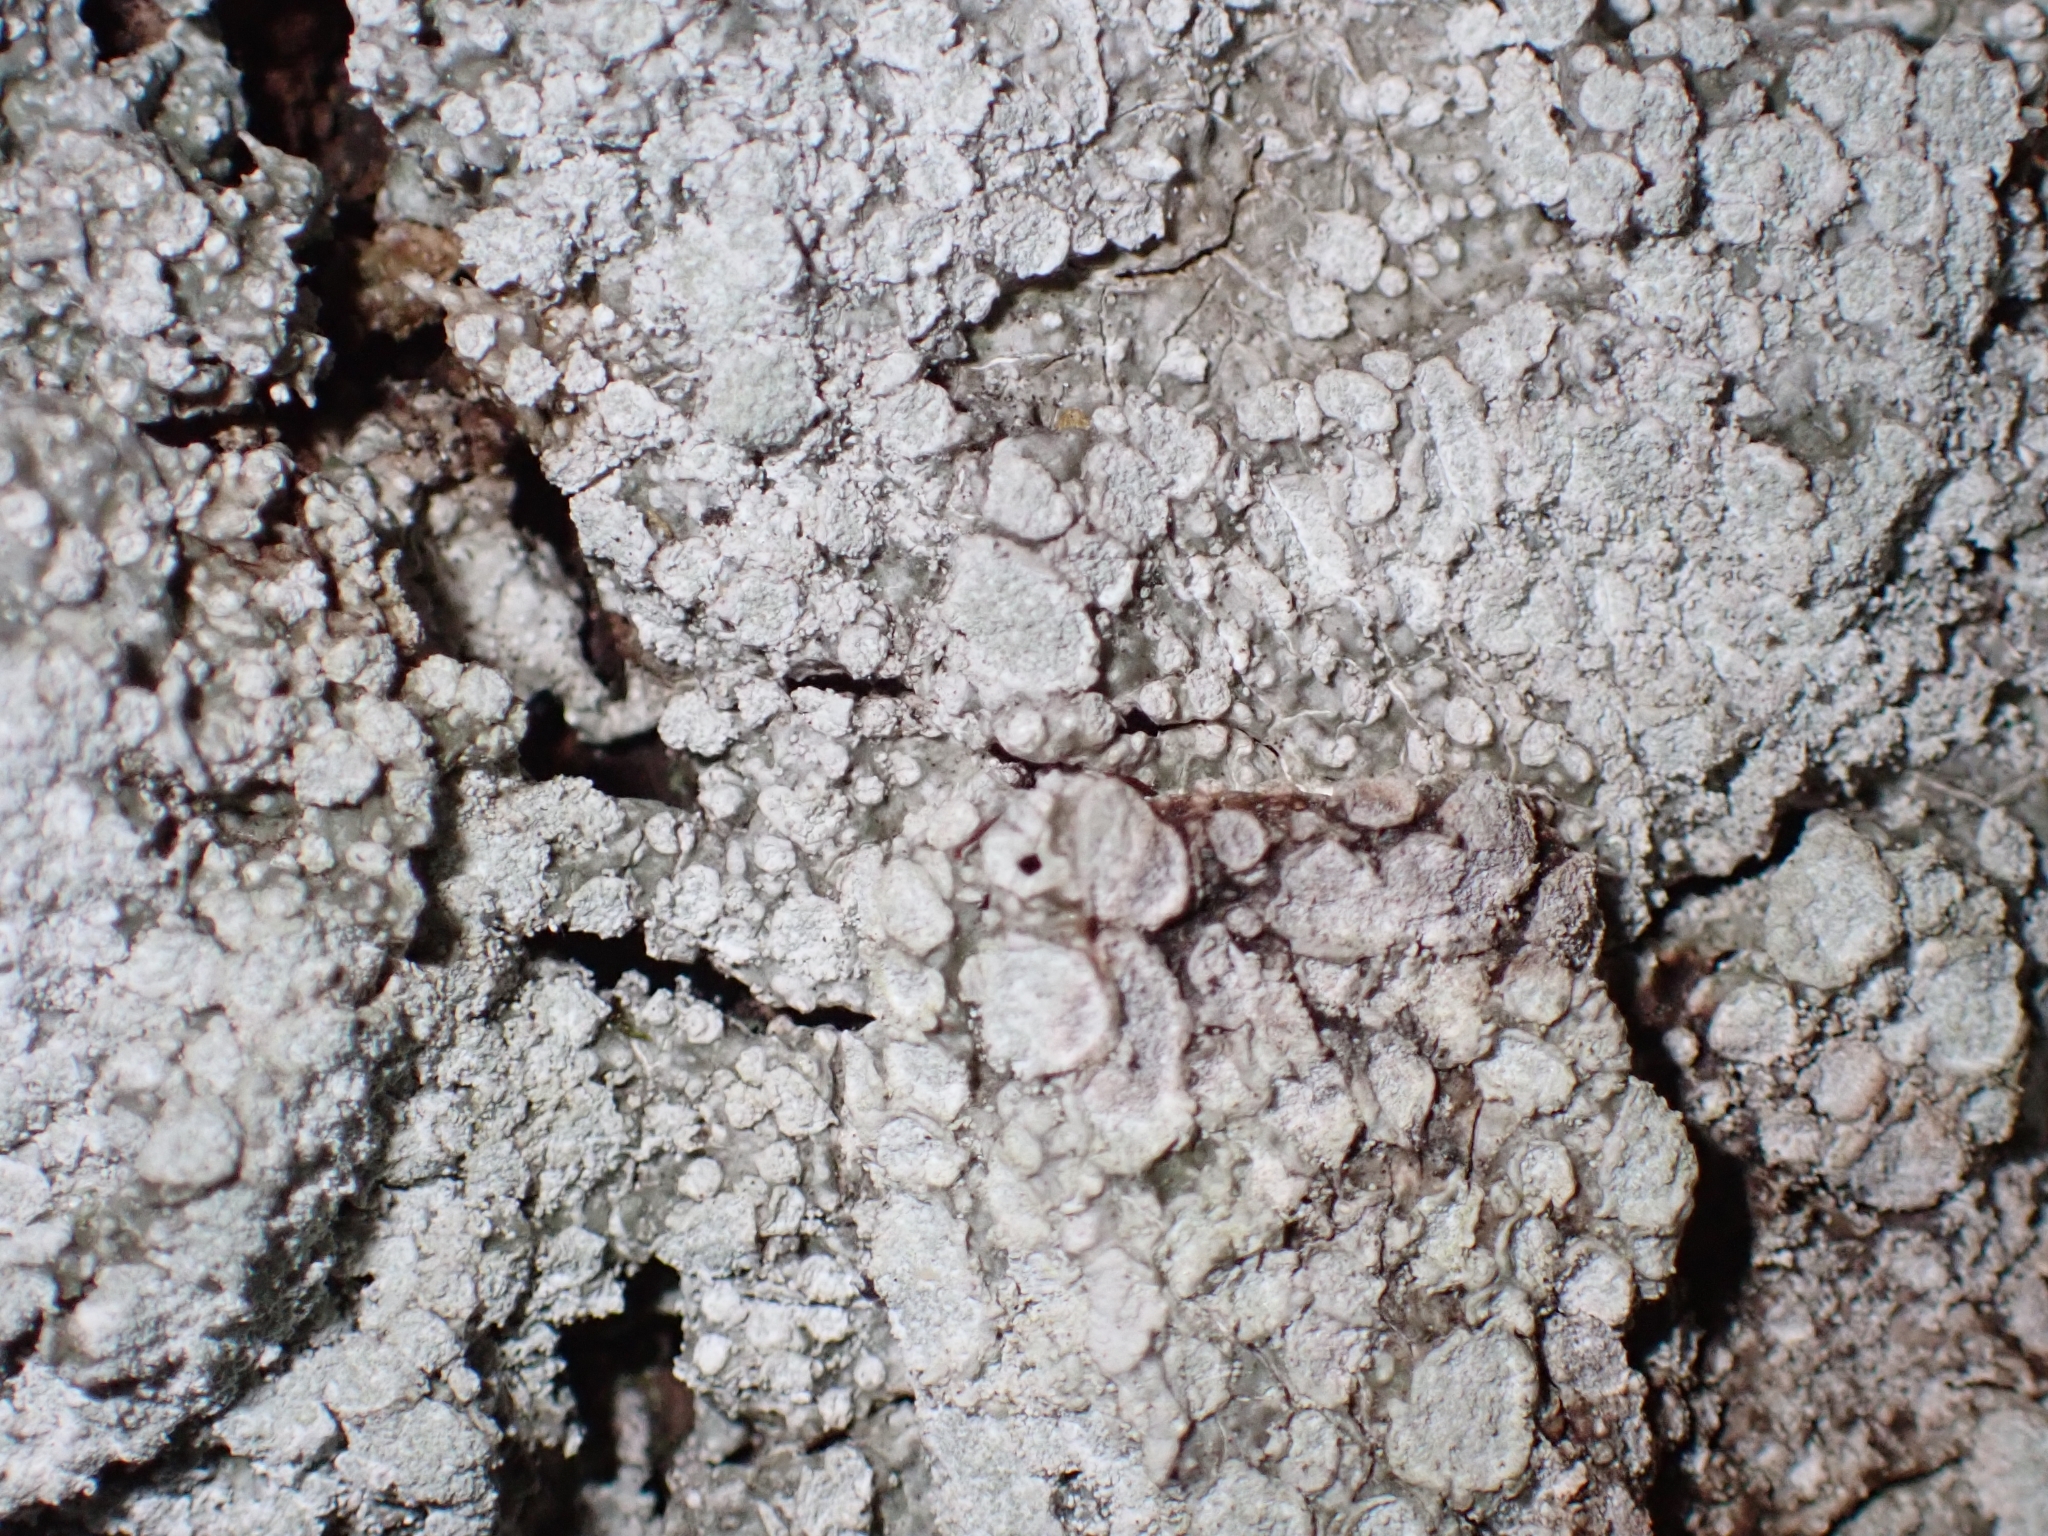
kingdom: Fungi
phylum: Ascomycota
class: Lecanoromycetes
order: Pertusariales
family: Pertusariaceae
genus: Lepra
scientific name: Lepra albescens
